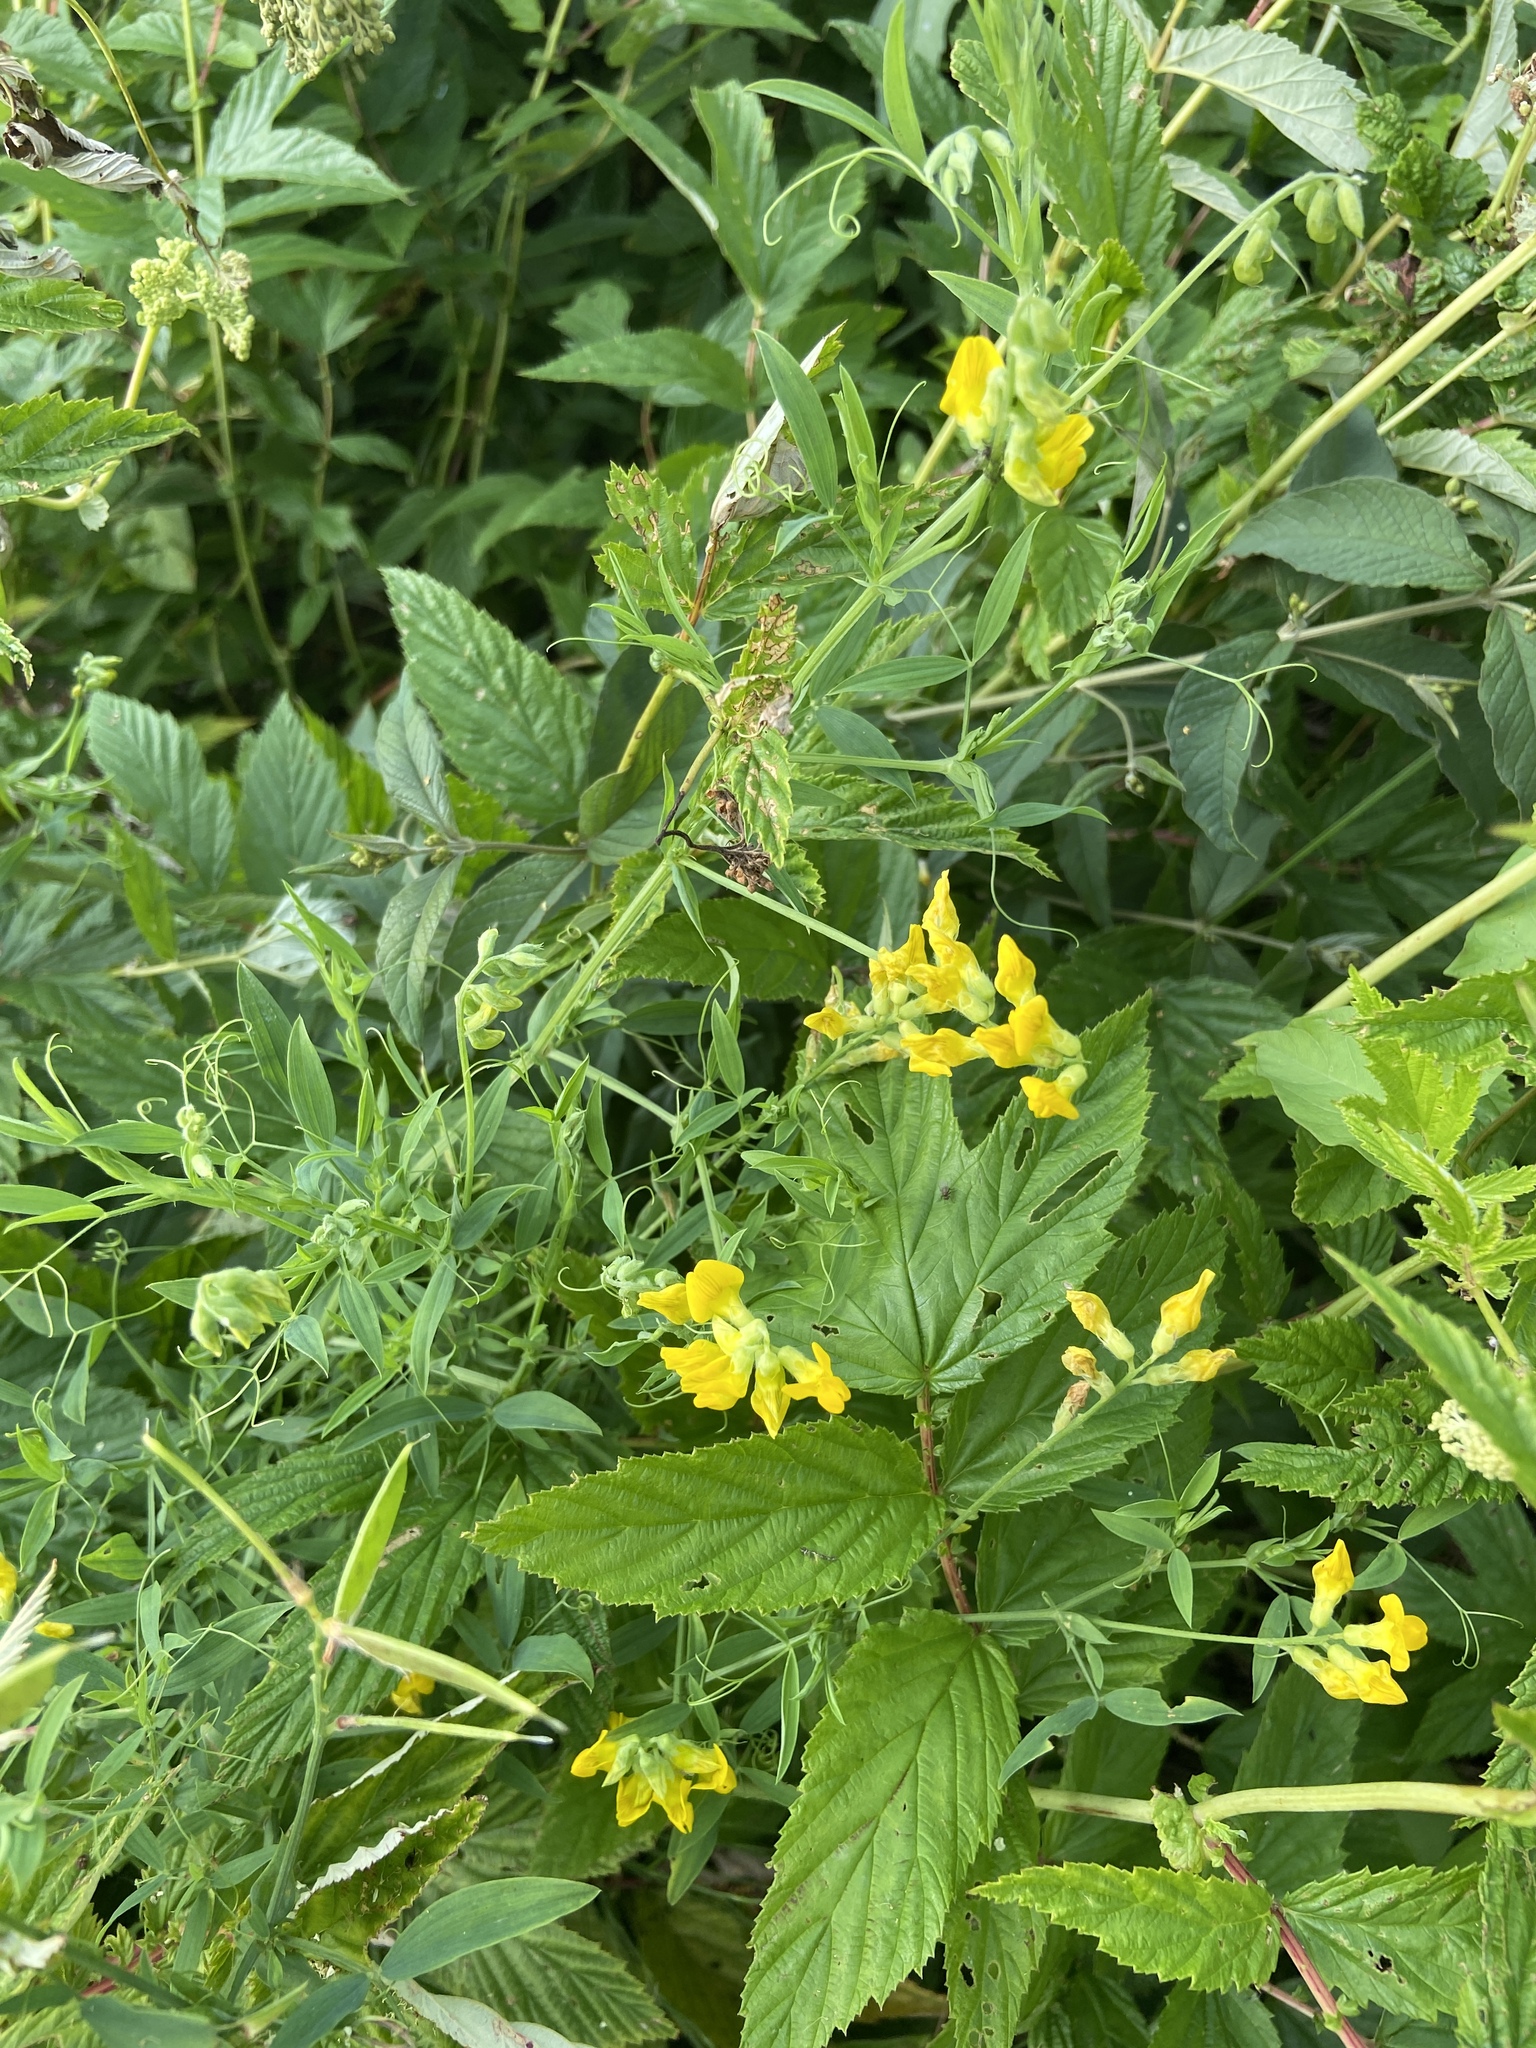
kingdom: Plantae
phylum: Tracheophyta
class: Magnoliopsida
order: Fabales
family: Fabaceae
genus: Lathyrus
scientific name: Lathyrus pratensis
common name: Meadow vetchling
